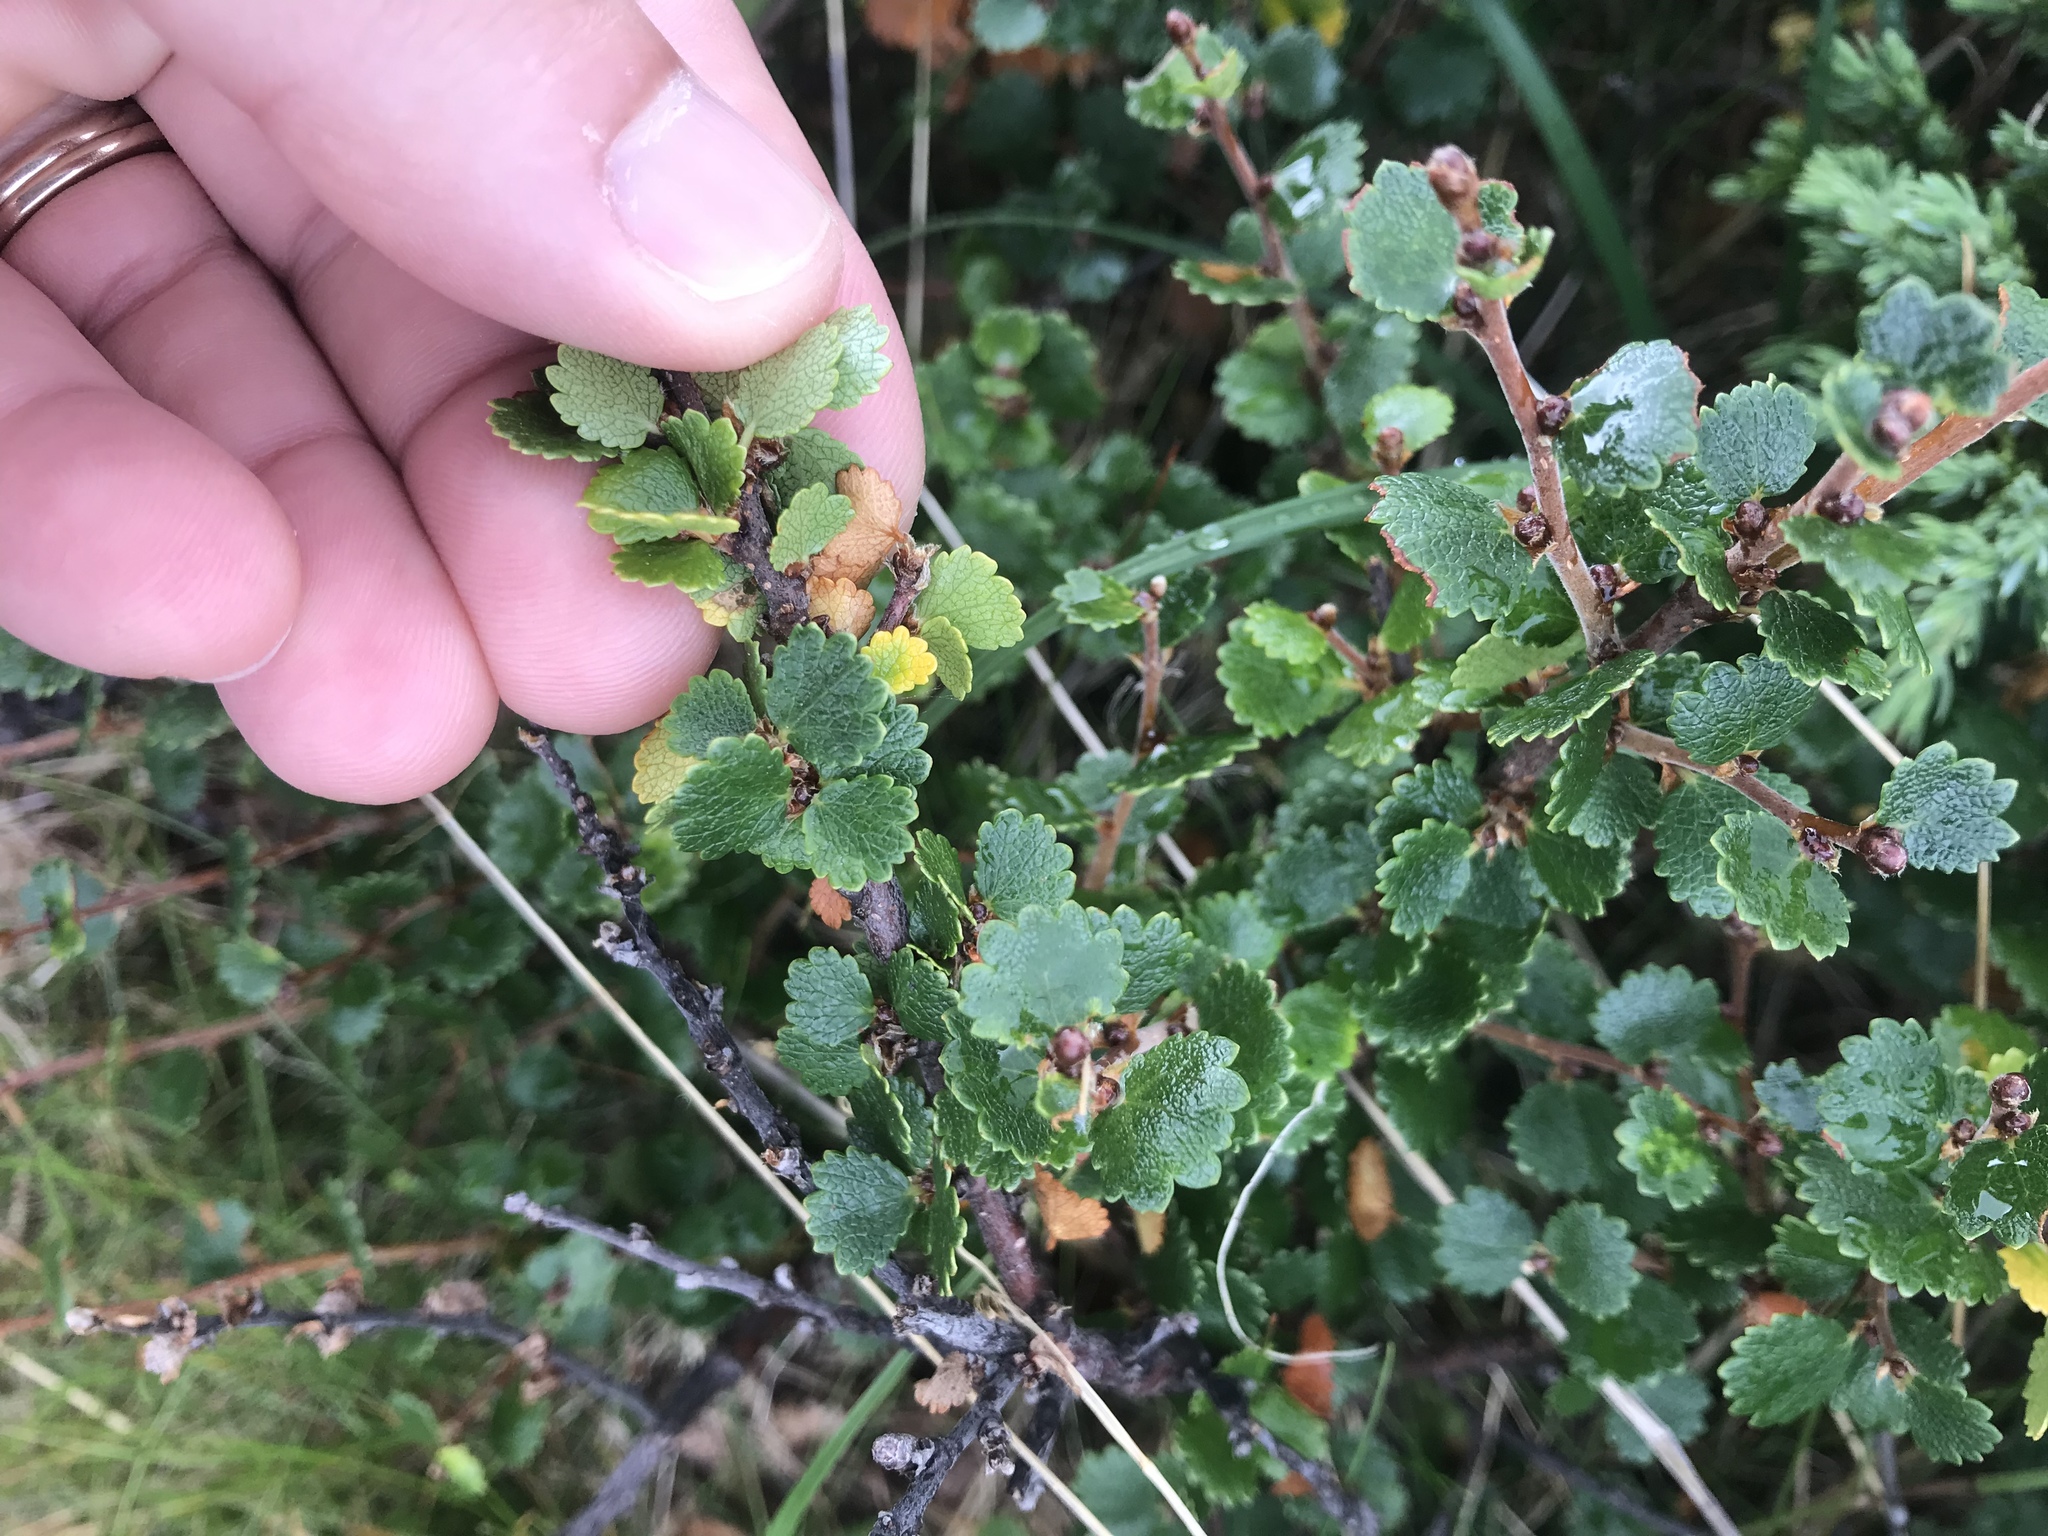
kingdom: Plantae
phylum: Tracheophyta
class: Magnoliopsida
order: Fagales
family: Betulaceae
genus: Betula
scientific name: Betula nana
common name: Arctic dwarf birch
